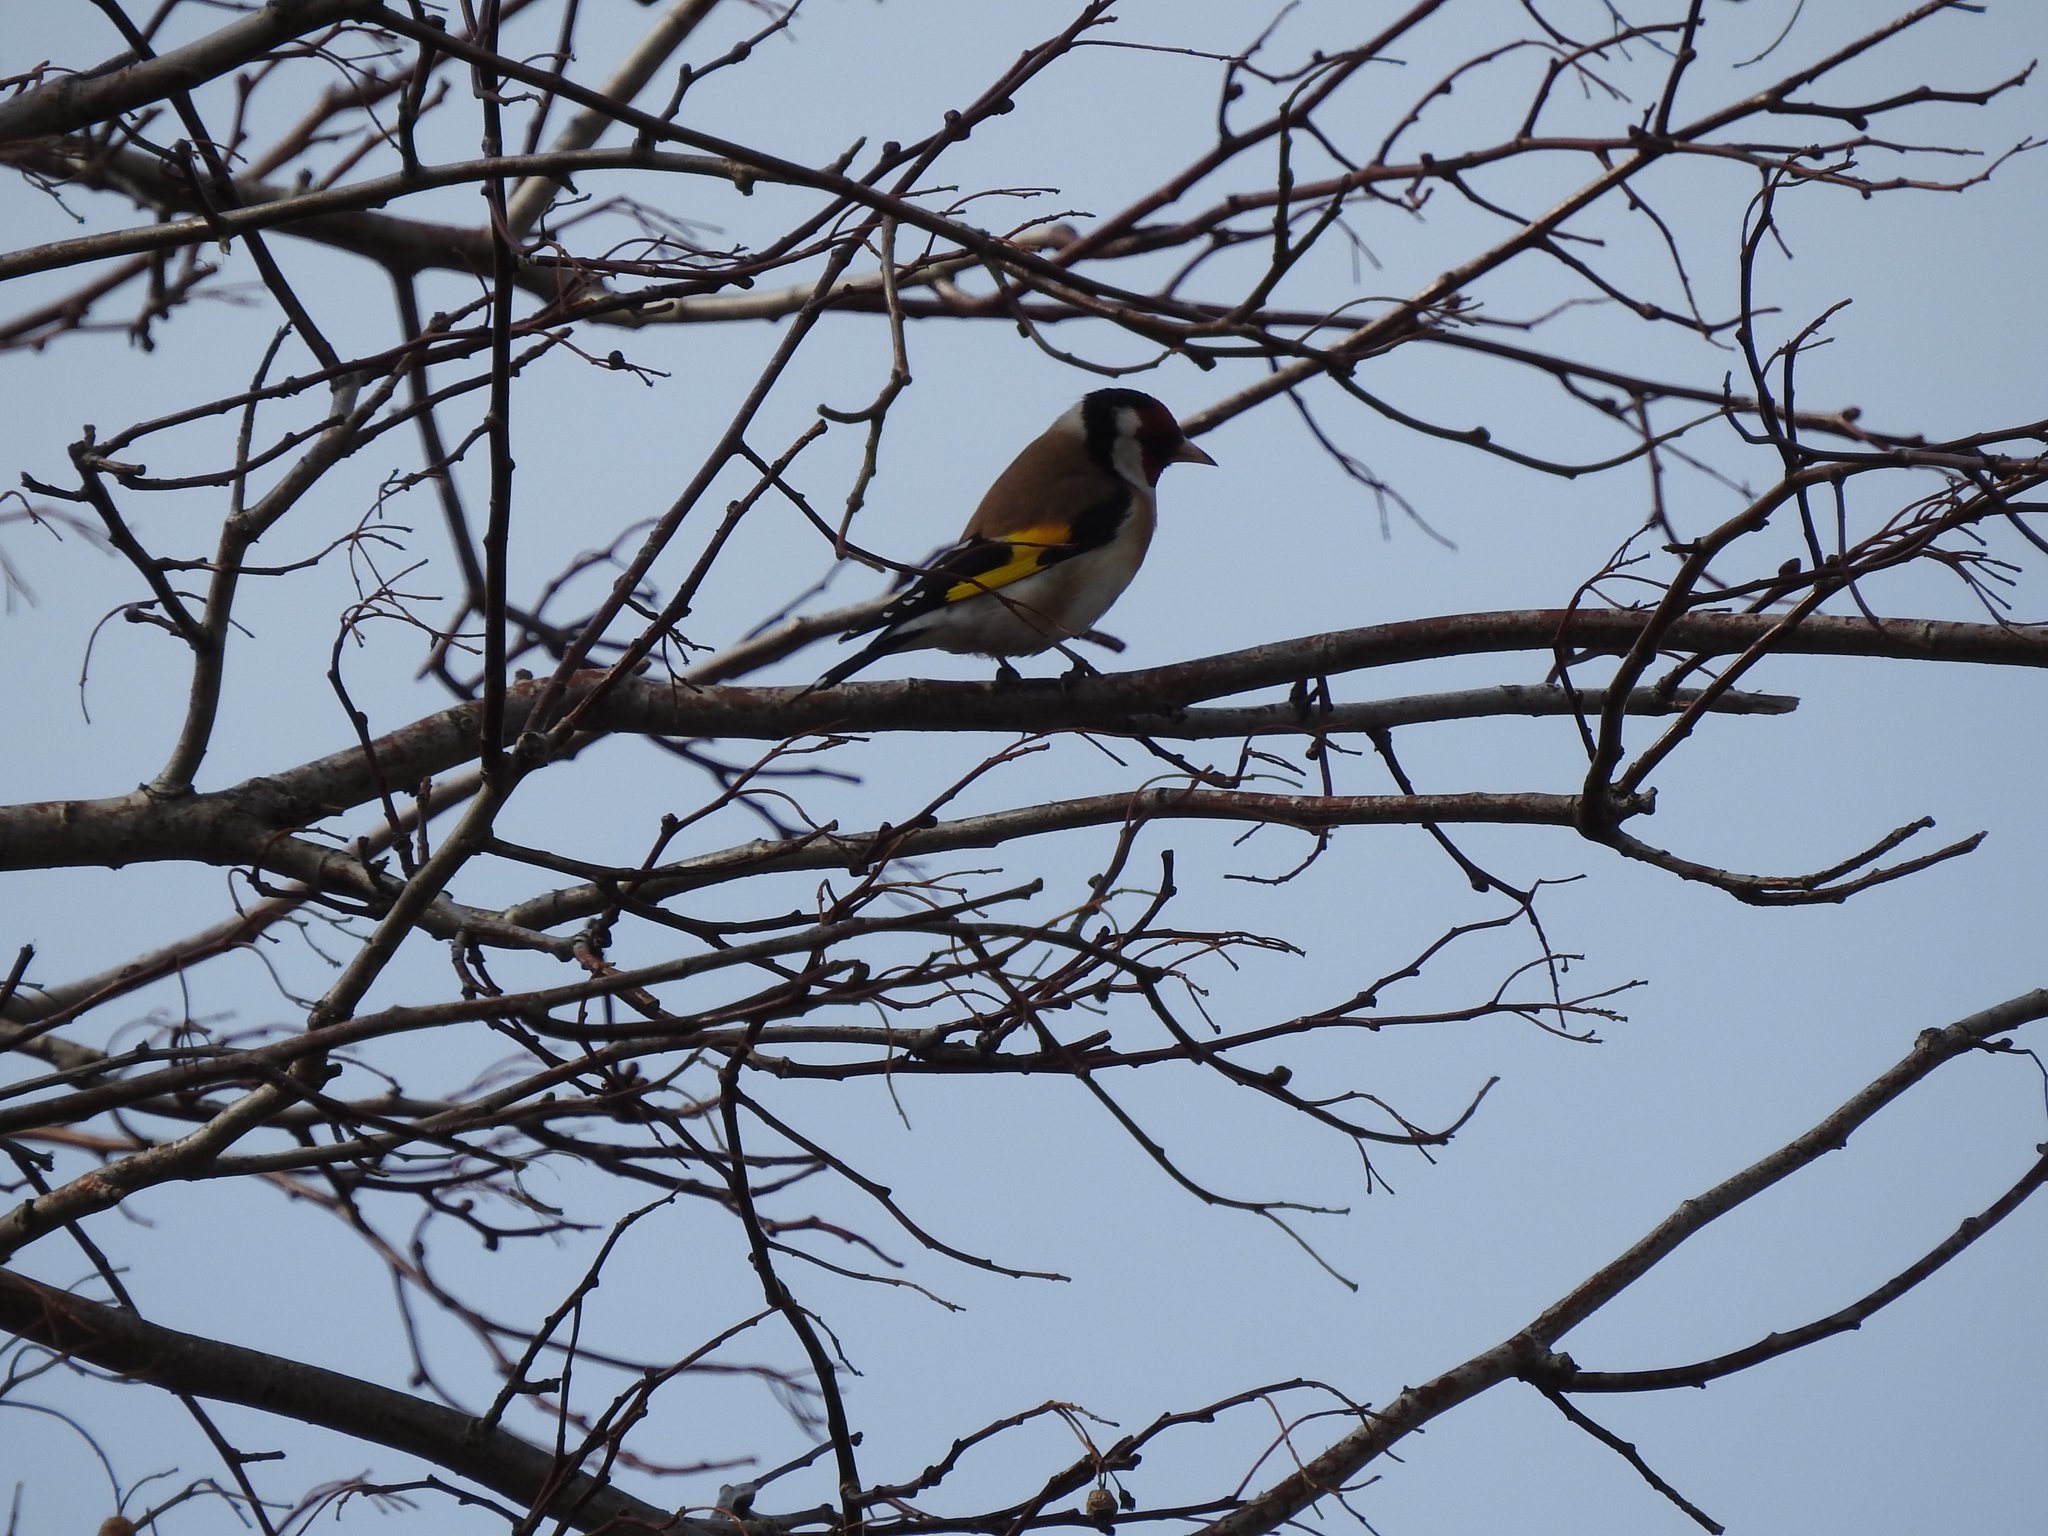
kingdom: Animalia
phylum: Chordata
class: Aves
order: Passeriformes
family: Fringillidae
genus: Carduelis
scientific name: Carduelis carduelis
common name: European goldfinch
